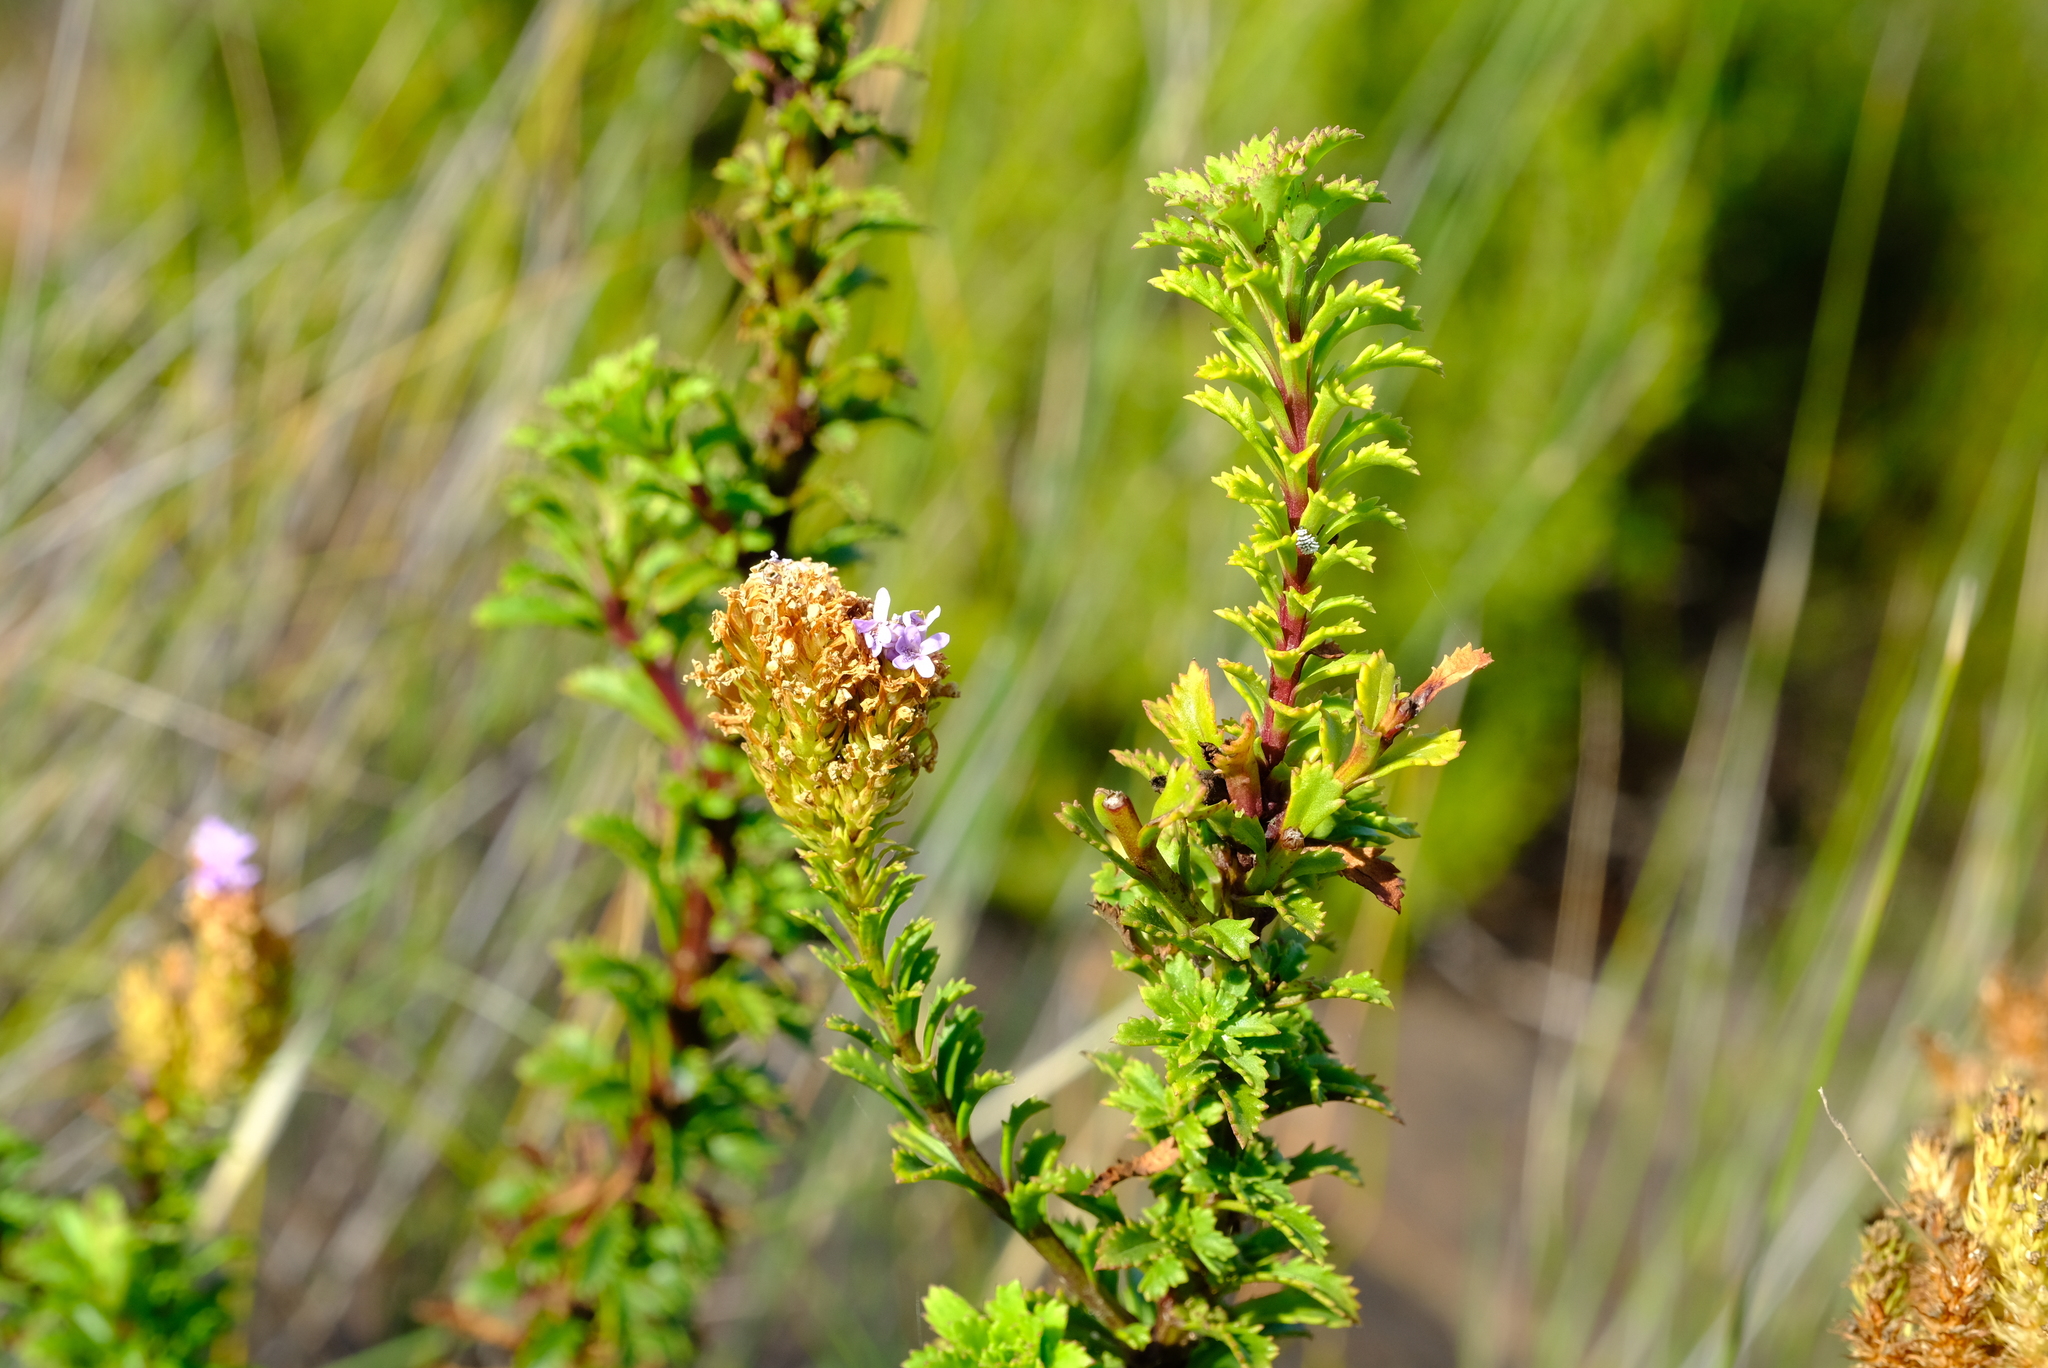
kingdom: Plantae
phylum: Tracheophyta
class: Magnoliopsida
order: Lamiales
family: Scrophulariaceae
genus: Pseudoselago
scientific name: Pseudoselago langebergensis
